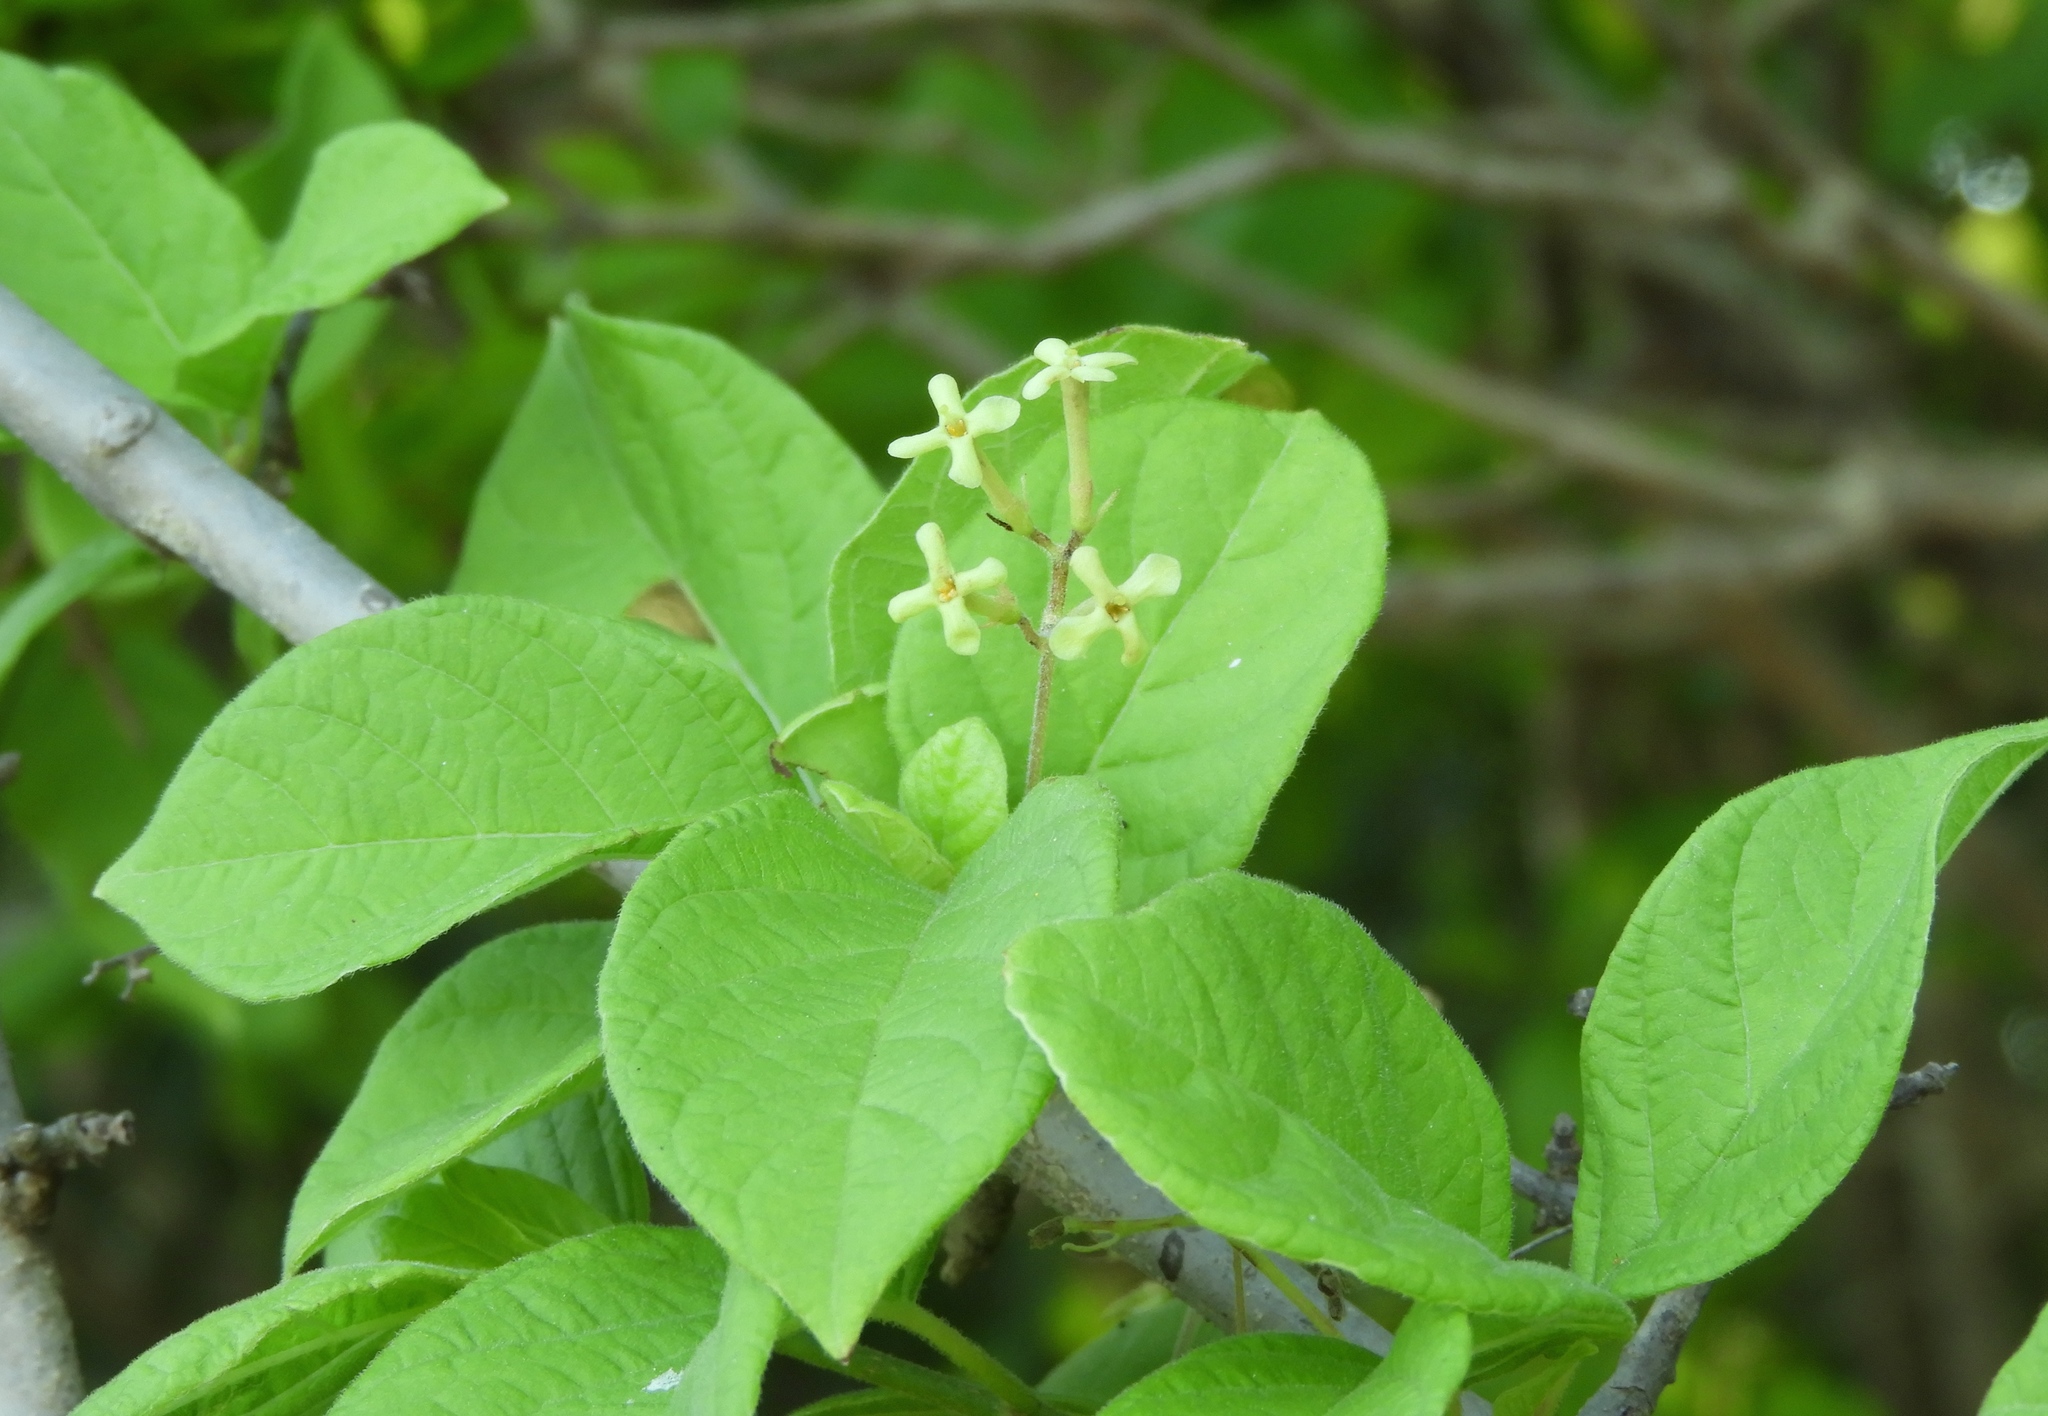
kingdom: Plantae
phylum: Tracheophyta
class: Magnoliopsida
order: Gentianales
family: Rubiaceae
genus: Guettarda
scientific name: Guettarda elliptica
